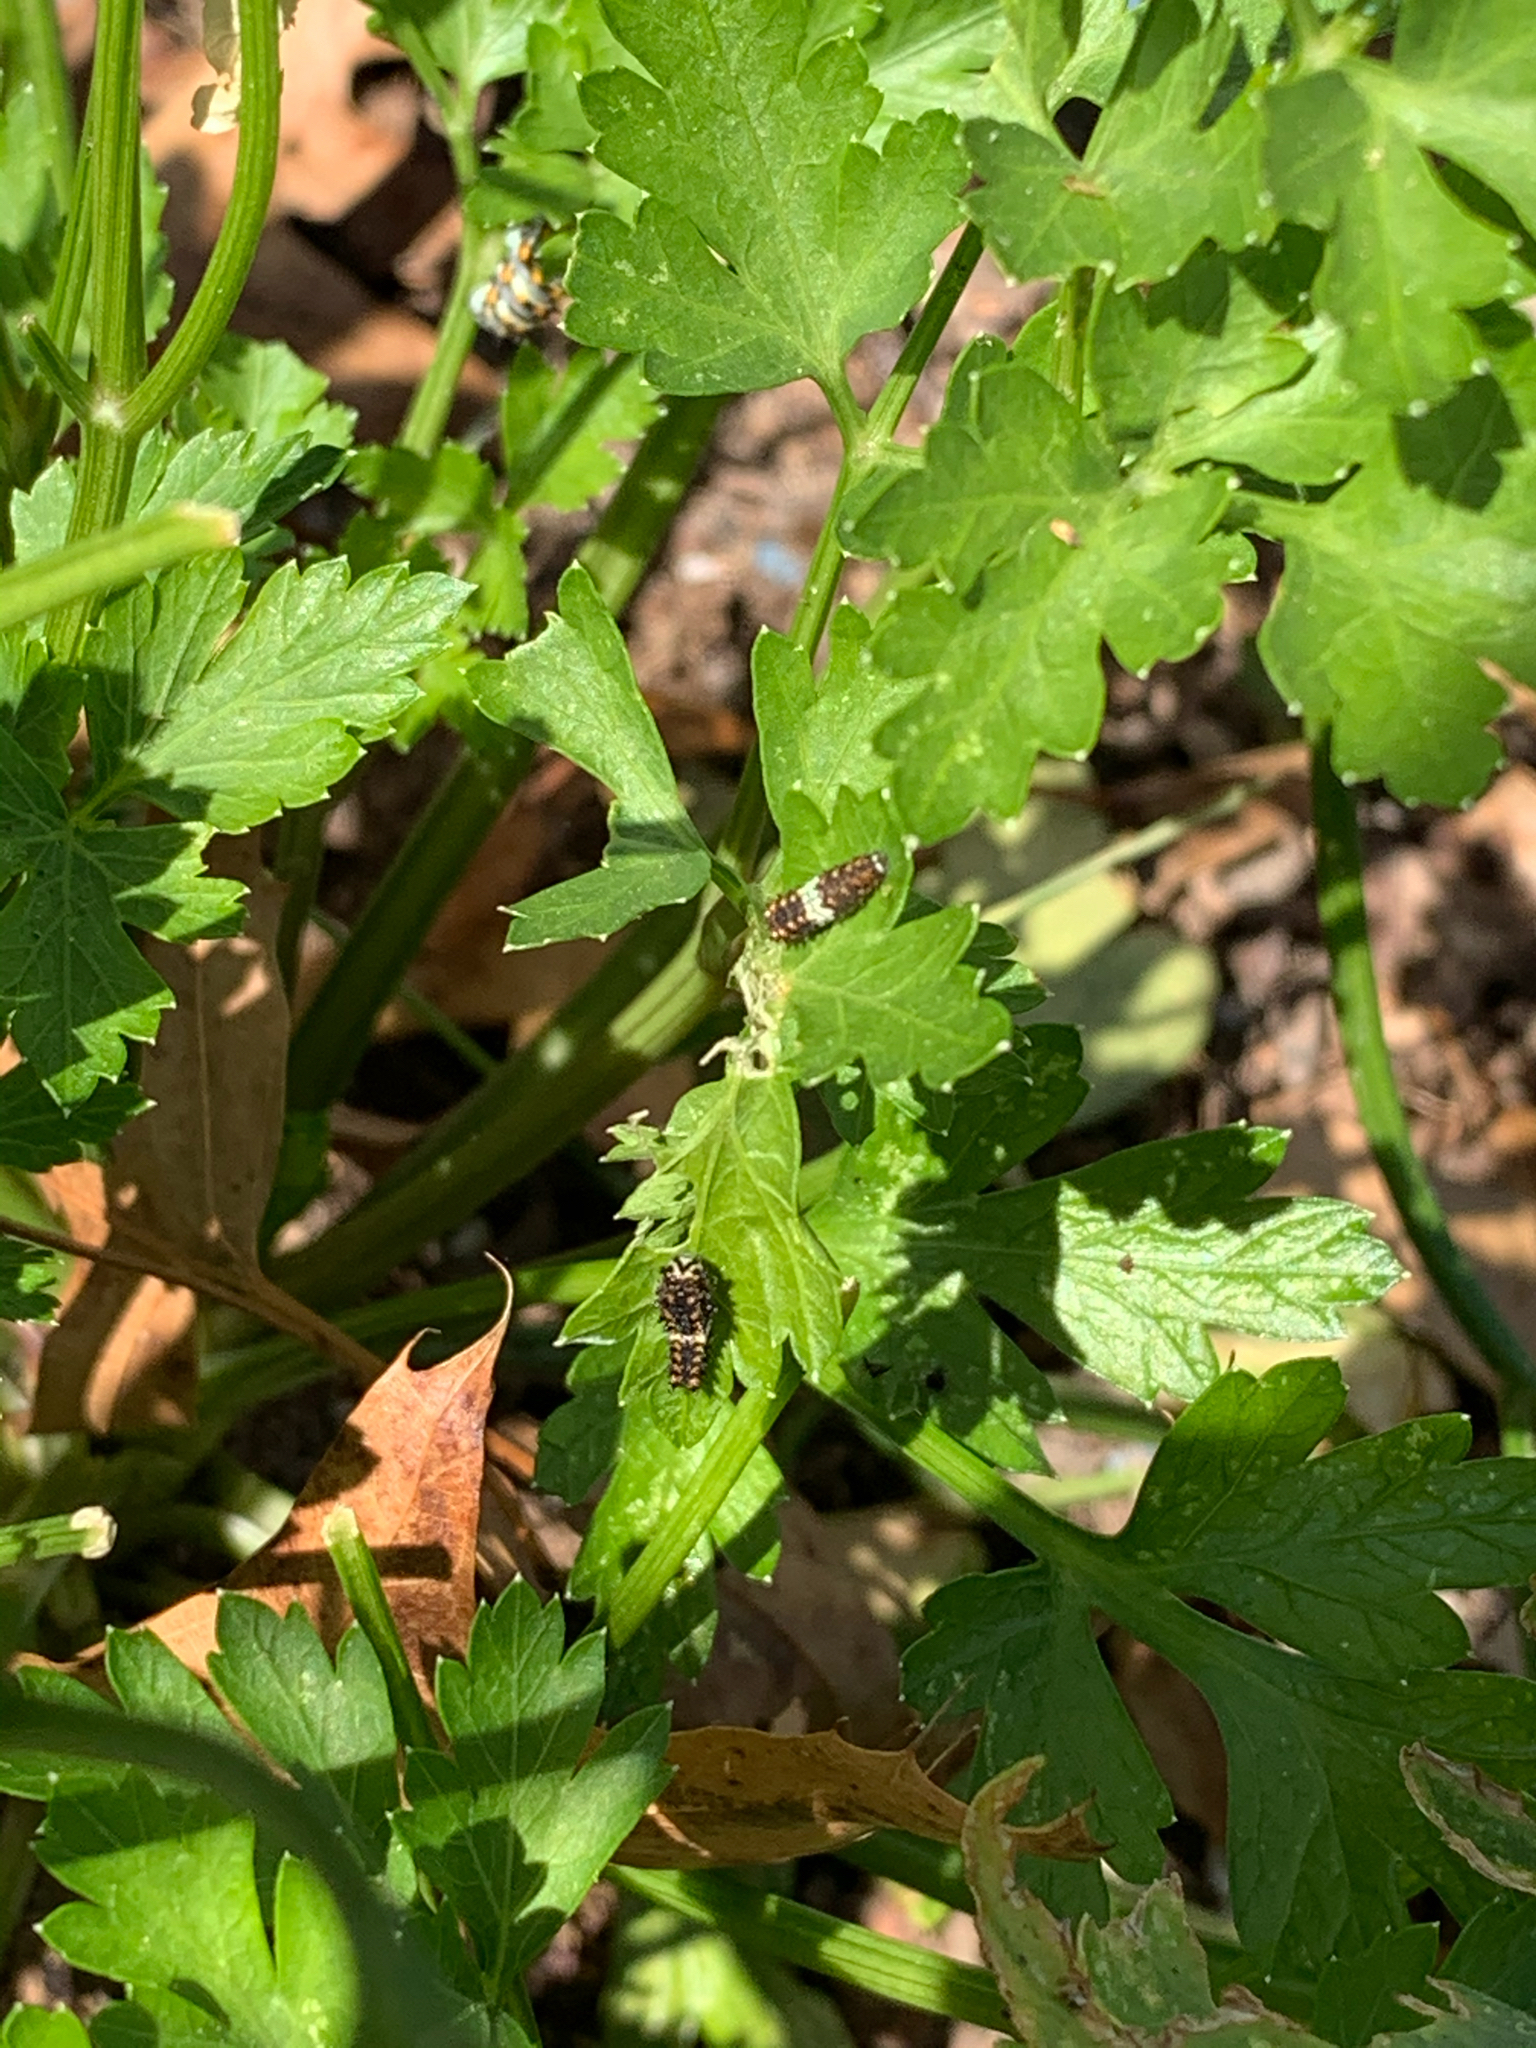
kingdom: Animalia
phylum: Arthropoda
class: Insecta
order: Lepidoptera
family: Papilionidae
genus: Papilio
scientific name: Papilio polyxenes
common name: Black swallowtail
